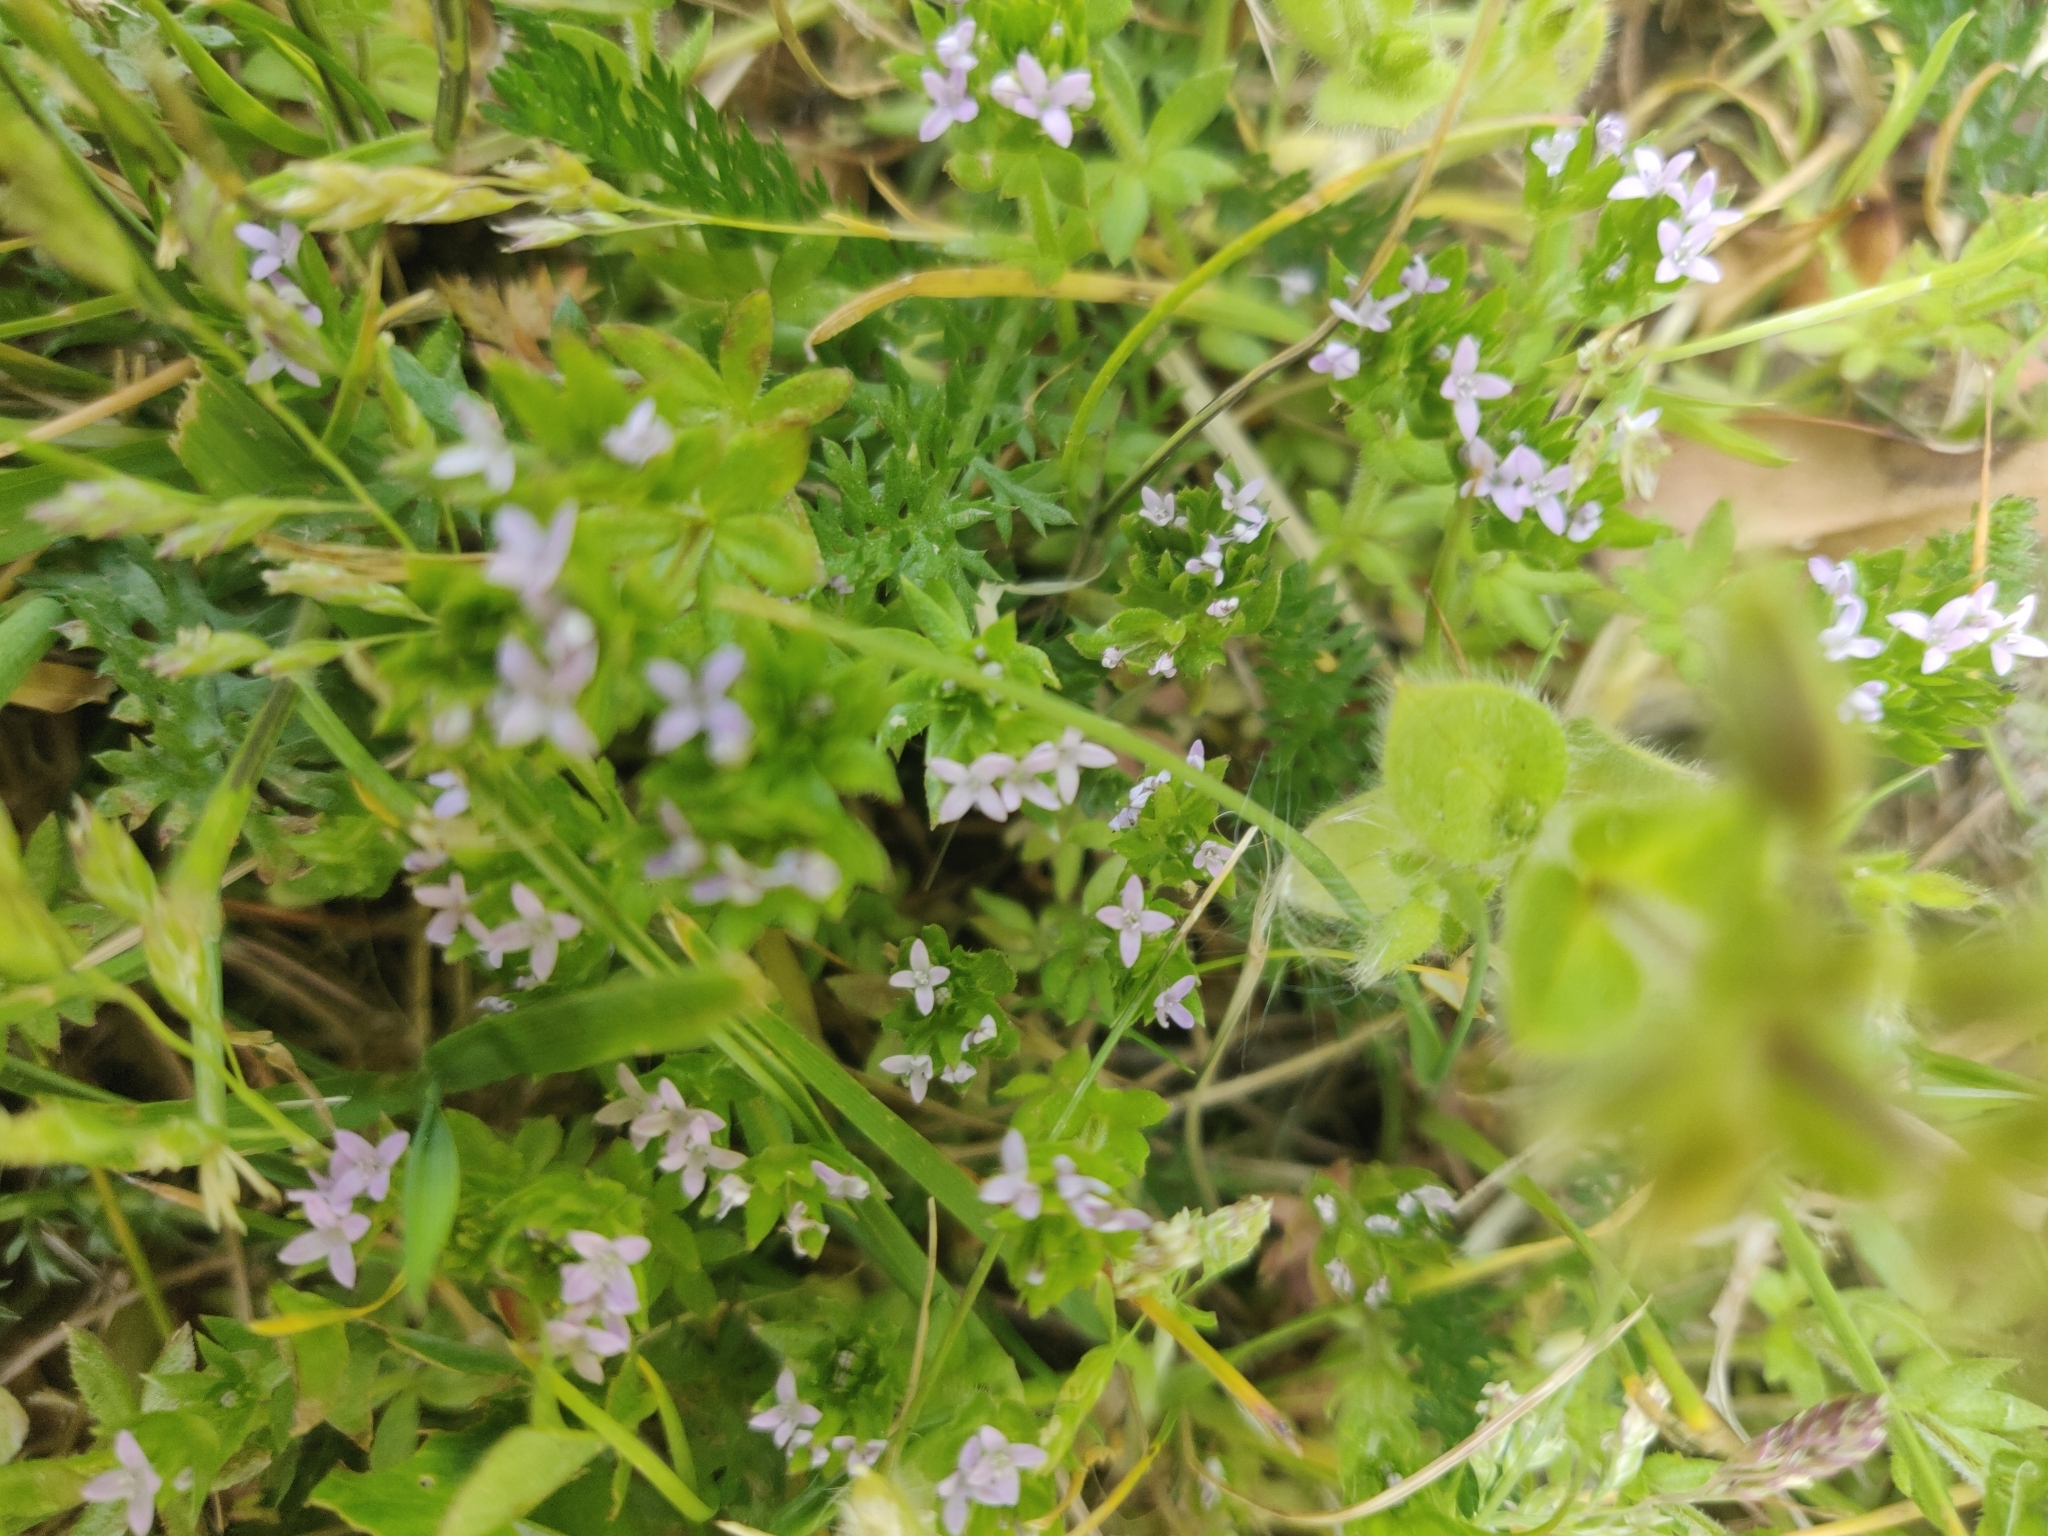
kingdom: Plantae
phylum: Tracheophyta
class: Magnoliopsida
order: Gentianales
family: Rubiaceae
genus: Sherardia
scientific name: Sherardia arvensis
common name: Field madder
